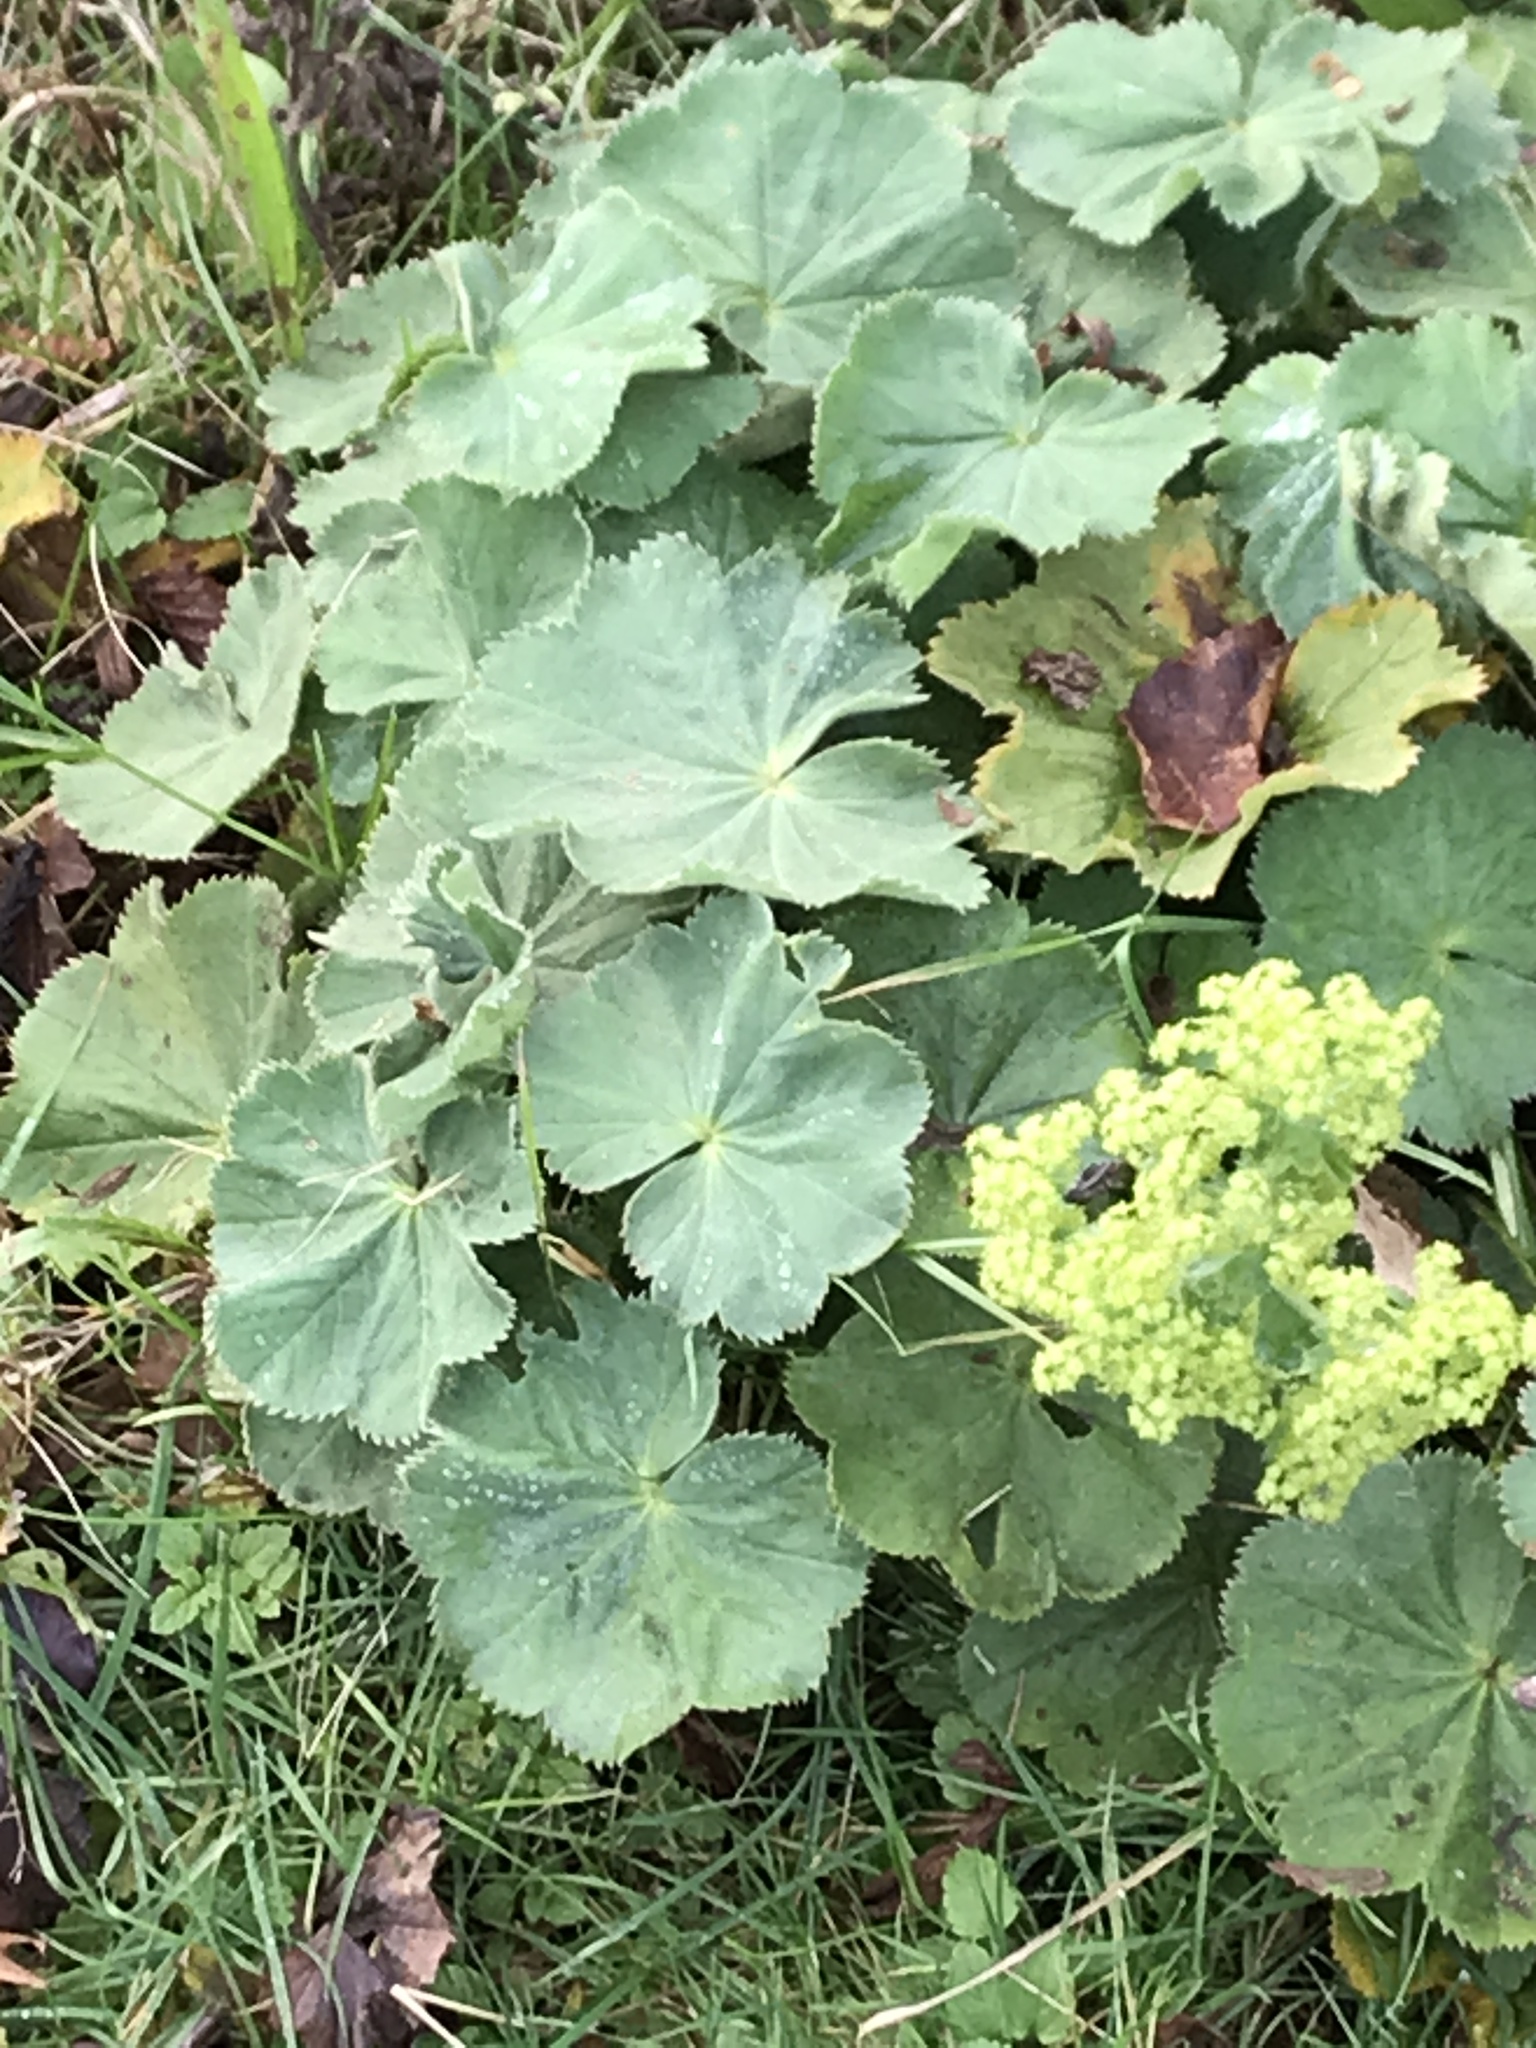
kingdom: Plantae
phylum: Tracheophyta
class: Magnoliopsida
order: Rosales
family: Rosaceae
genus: Alchemilla
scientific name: Alchemilla mollis
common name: Lady's-mantle
